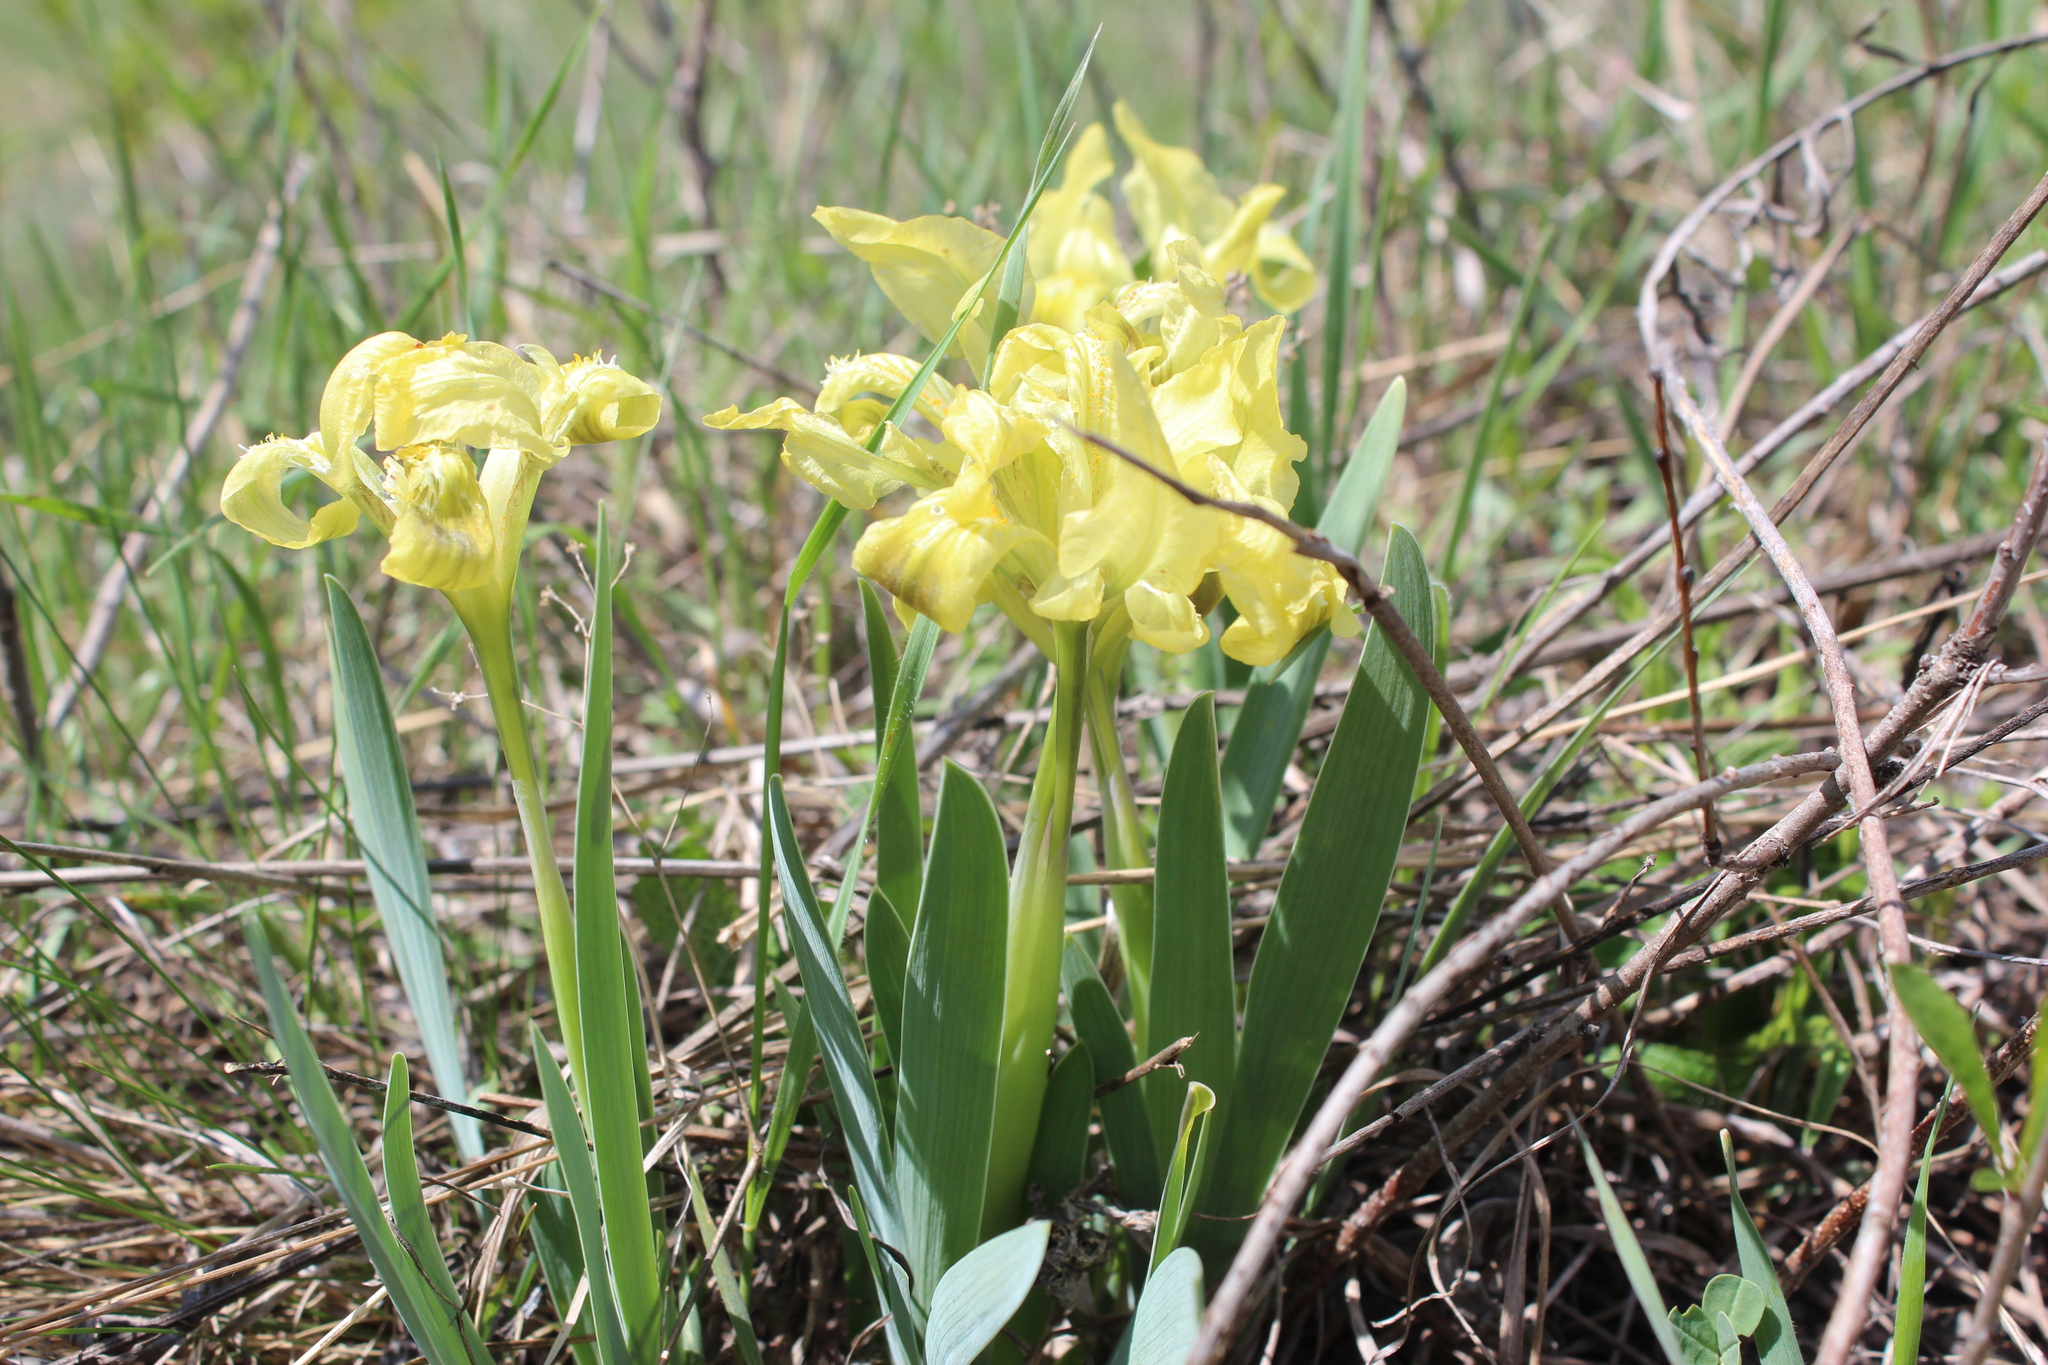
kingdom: Plantae
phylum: Tracheophyta
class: Liliopsida
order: Asparagales
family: Iridaceae
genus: Iris
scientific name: Iris pumila
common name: Dwarf iris
